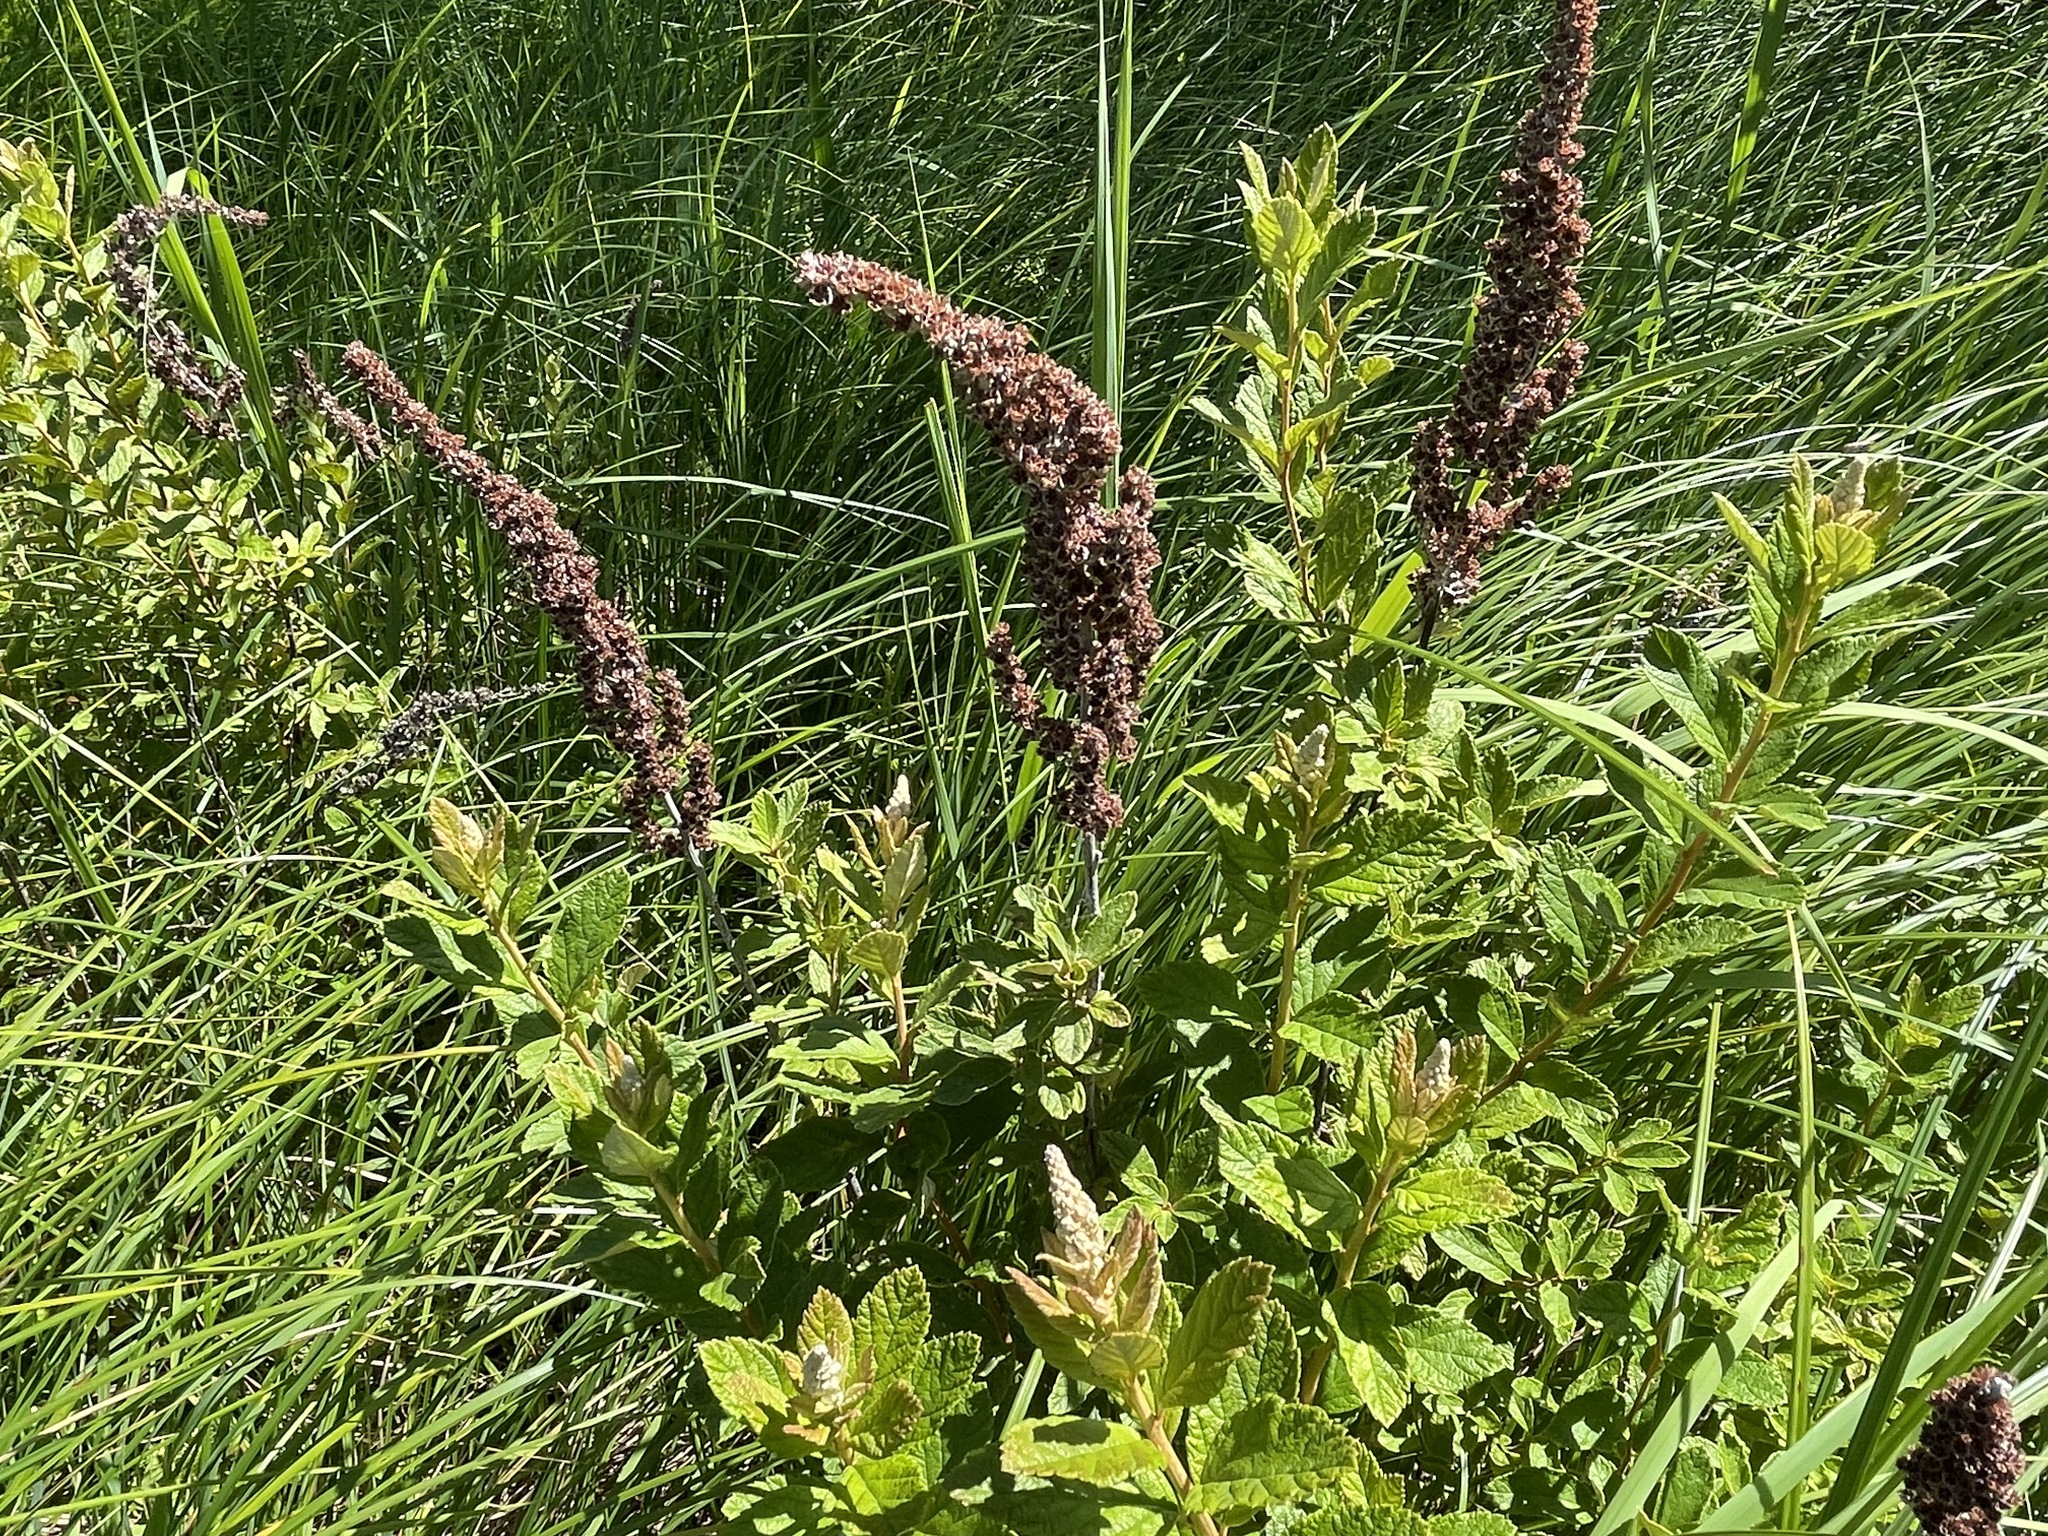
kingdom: Plantae
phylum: Tracheophyta
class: Magnoliopsida
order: Rosales
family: Rosaceae
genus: Spiraea
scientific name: Spiraea tomentosa
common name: Hardhack
